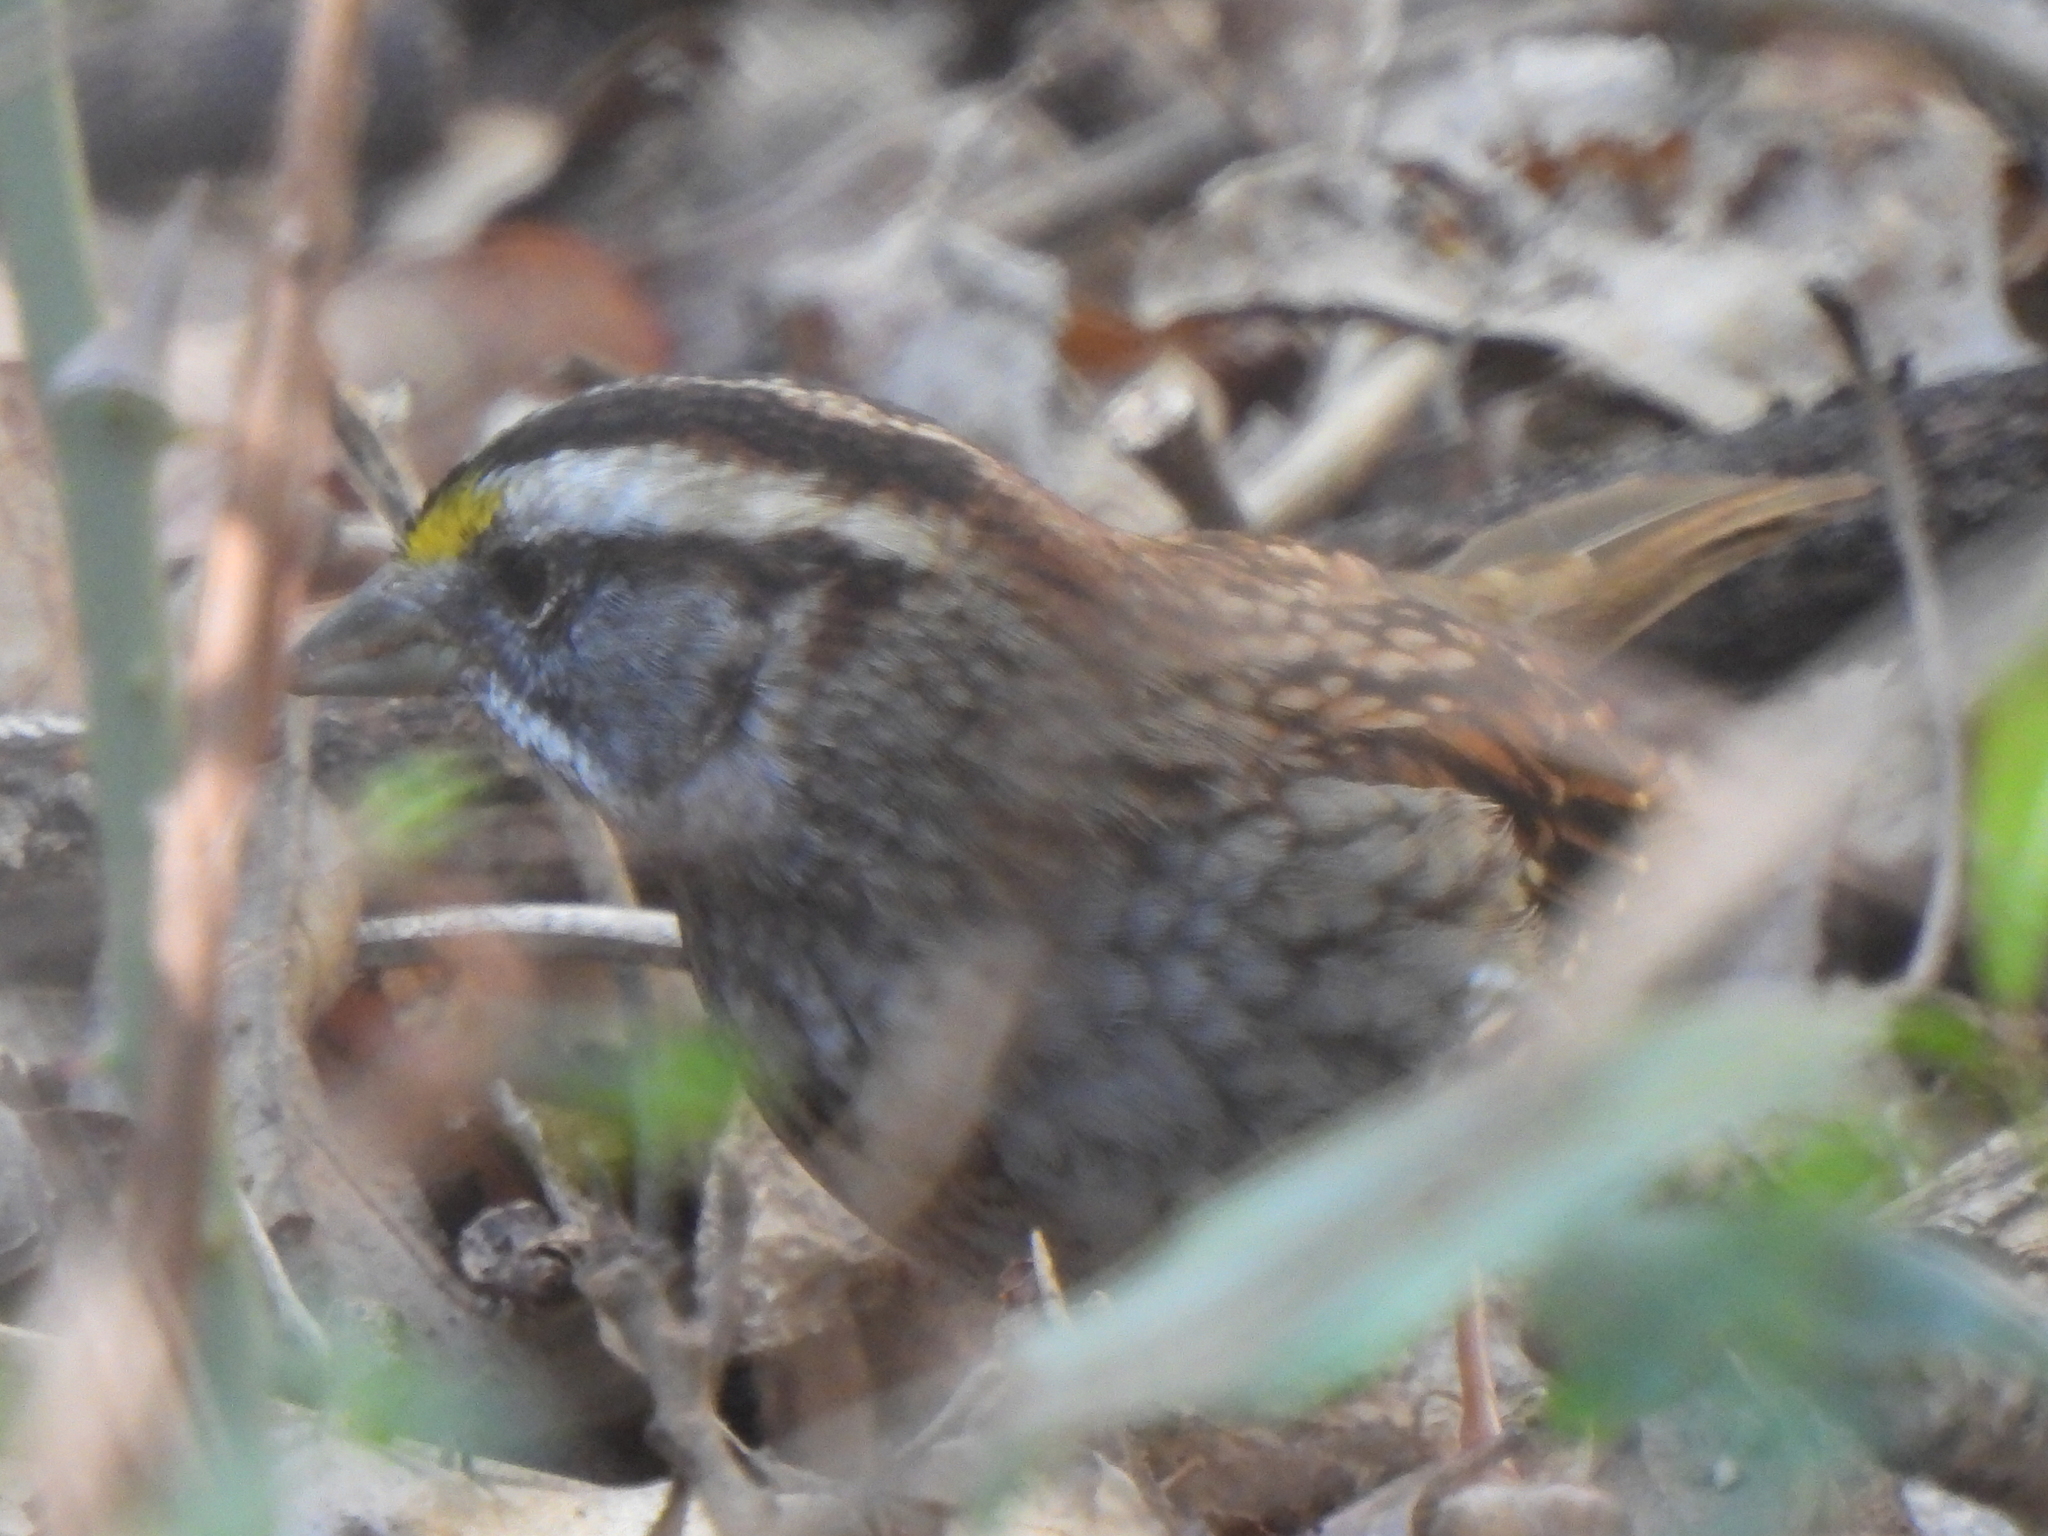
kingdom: Animalia
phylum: Chordata
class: Aves
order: Passeriformes
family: Passerellidae
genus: Zonotrichia
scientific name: Zonotrichia albicollis
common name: White-throated sparrow
